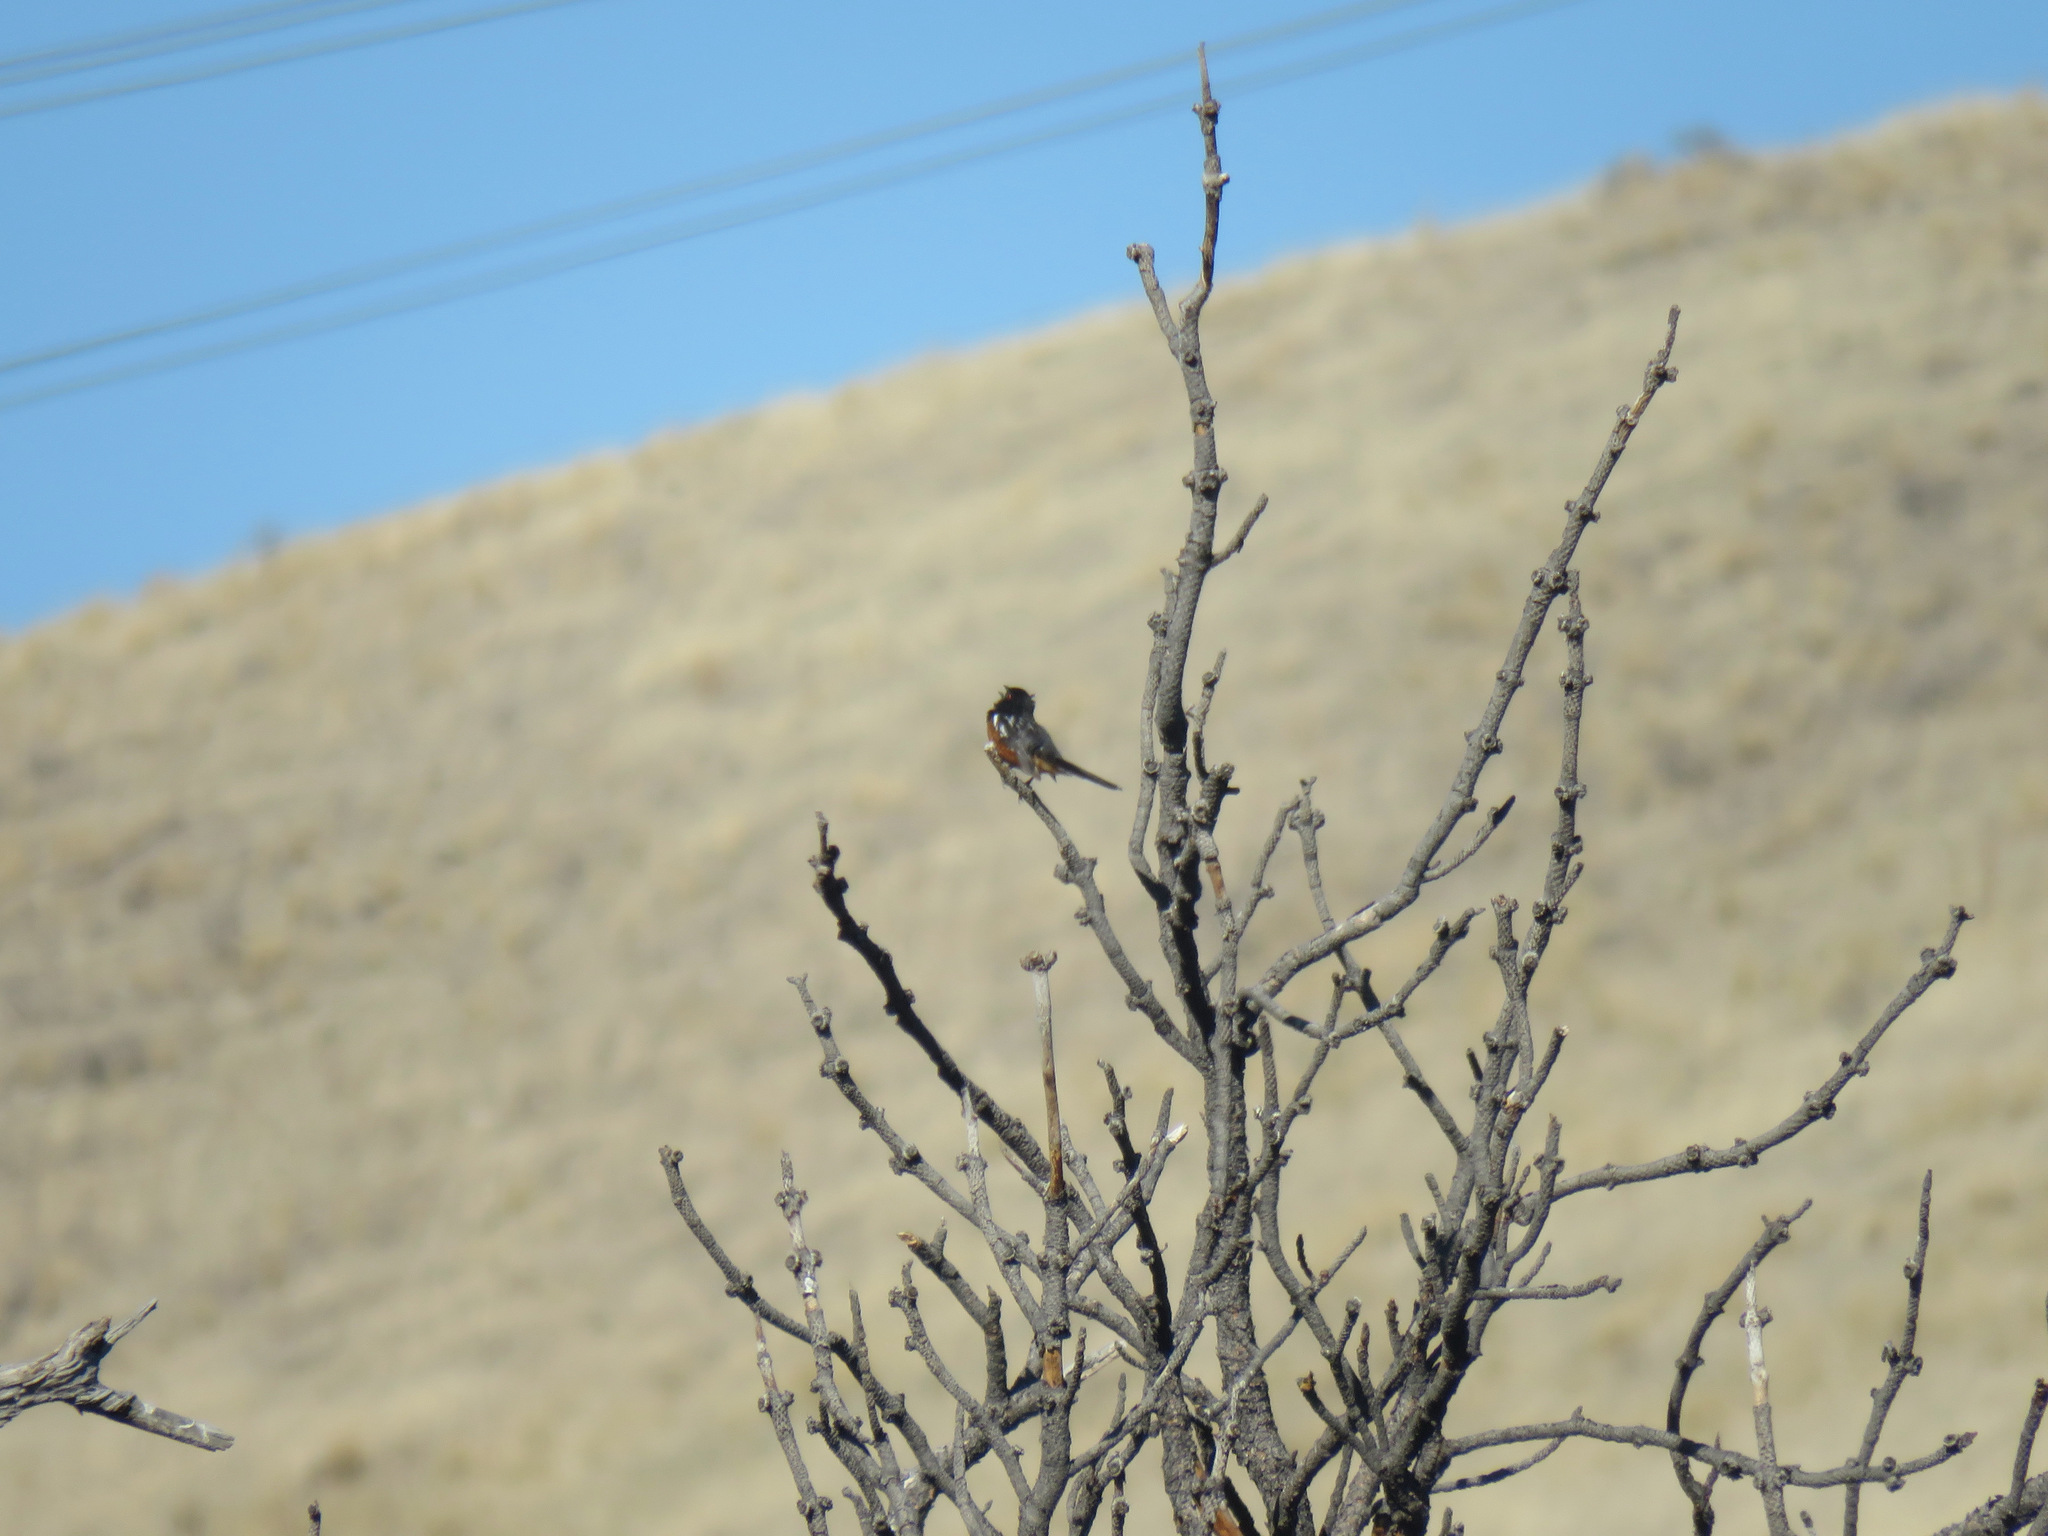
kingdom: Animalia
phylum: Chordata
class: Aves
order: Passeriformes
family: Passerellidae
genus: Pipilo
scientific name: Pipilo maculatus
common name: Spotted towhee
